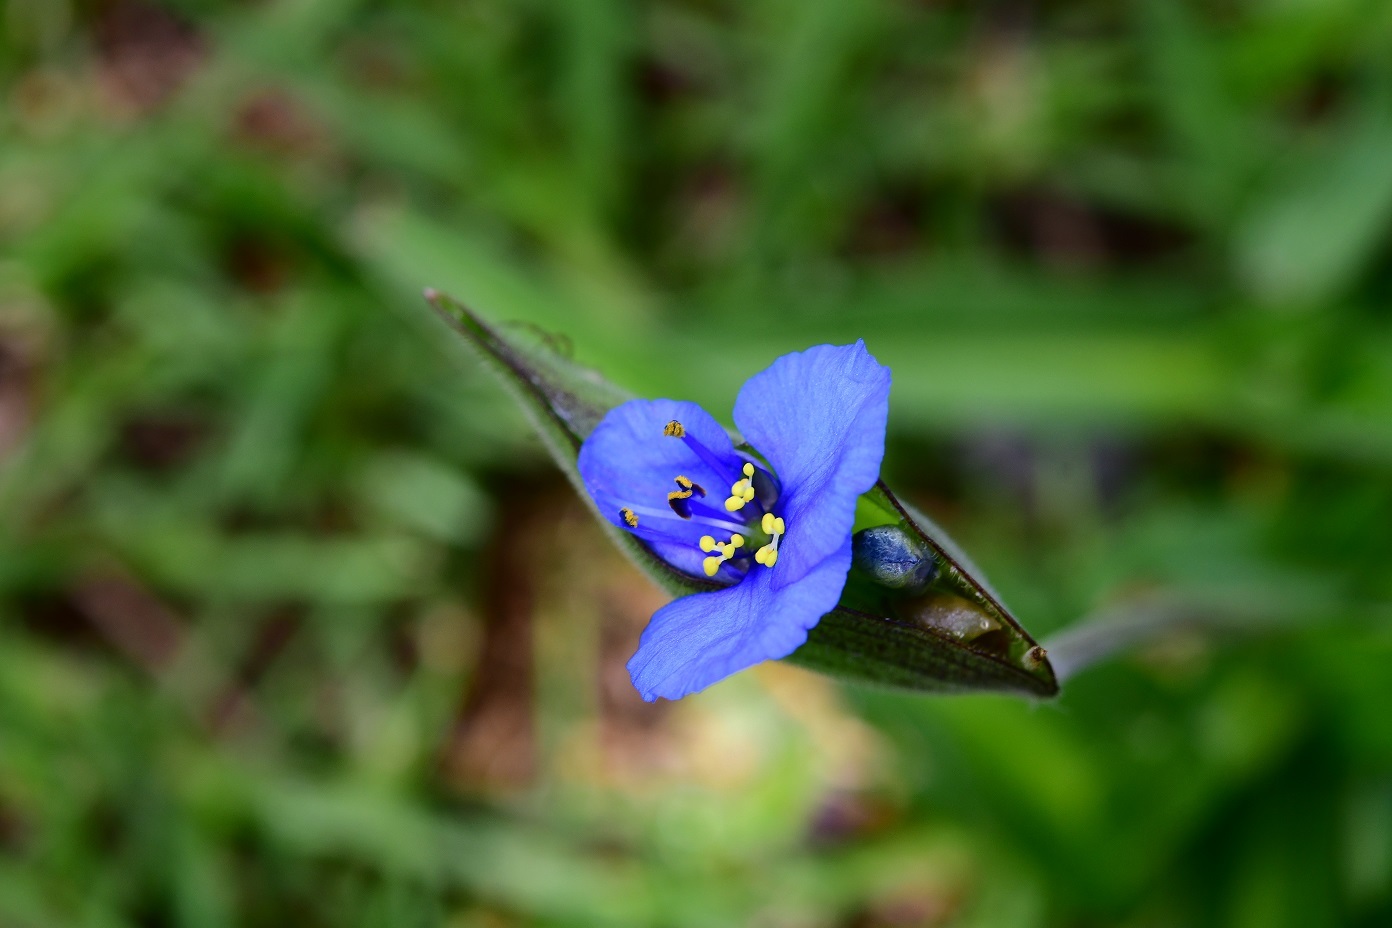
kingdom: Plantae
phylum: Tracheophyta
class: Liliopsida
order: Commelinales
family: Commelinaceae
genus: Commelina
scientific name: Commelina tuberosa
